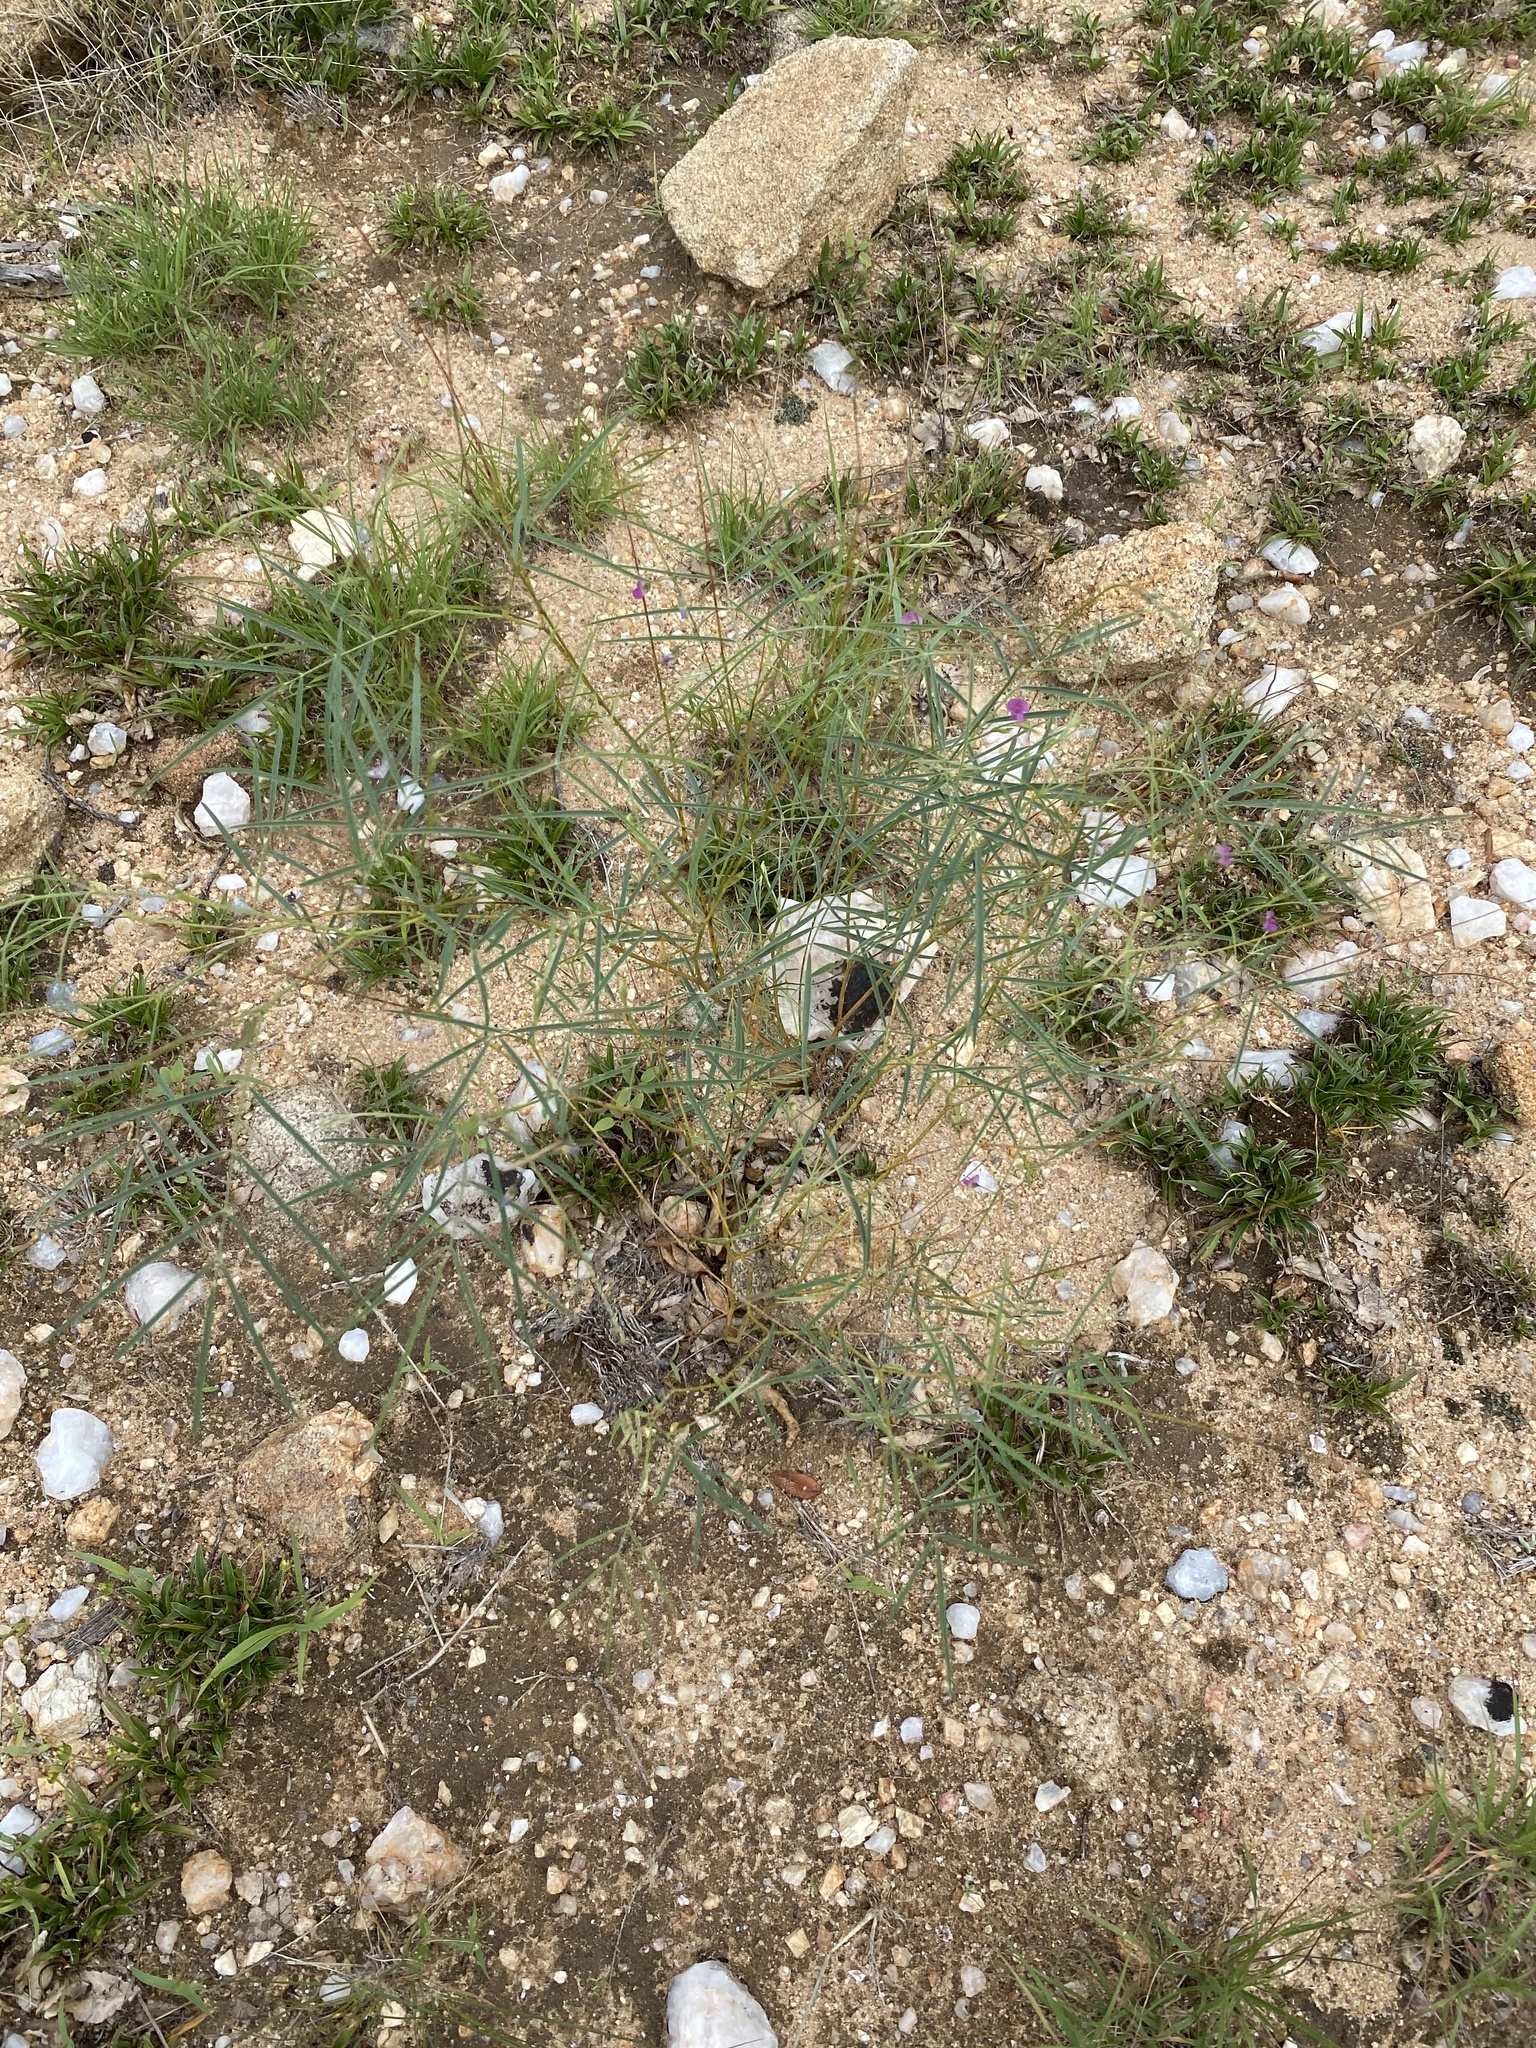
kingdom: Plantae
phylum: Tracheophyta
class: Magnoliopsida
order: Fabales
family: Fabaceae
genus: Tephrosia
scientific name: Tephrosia dregeana
